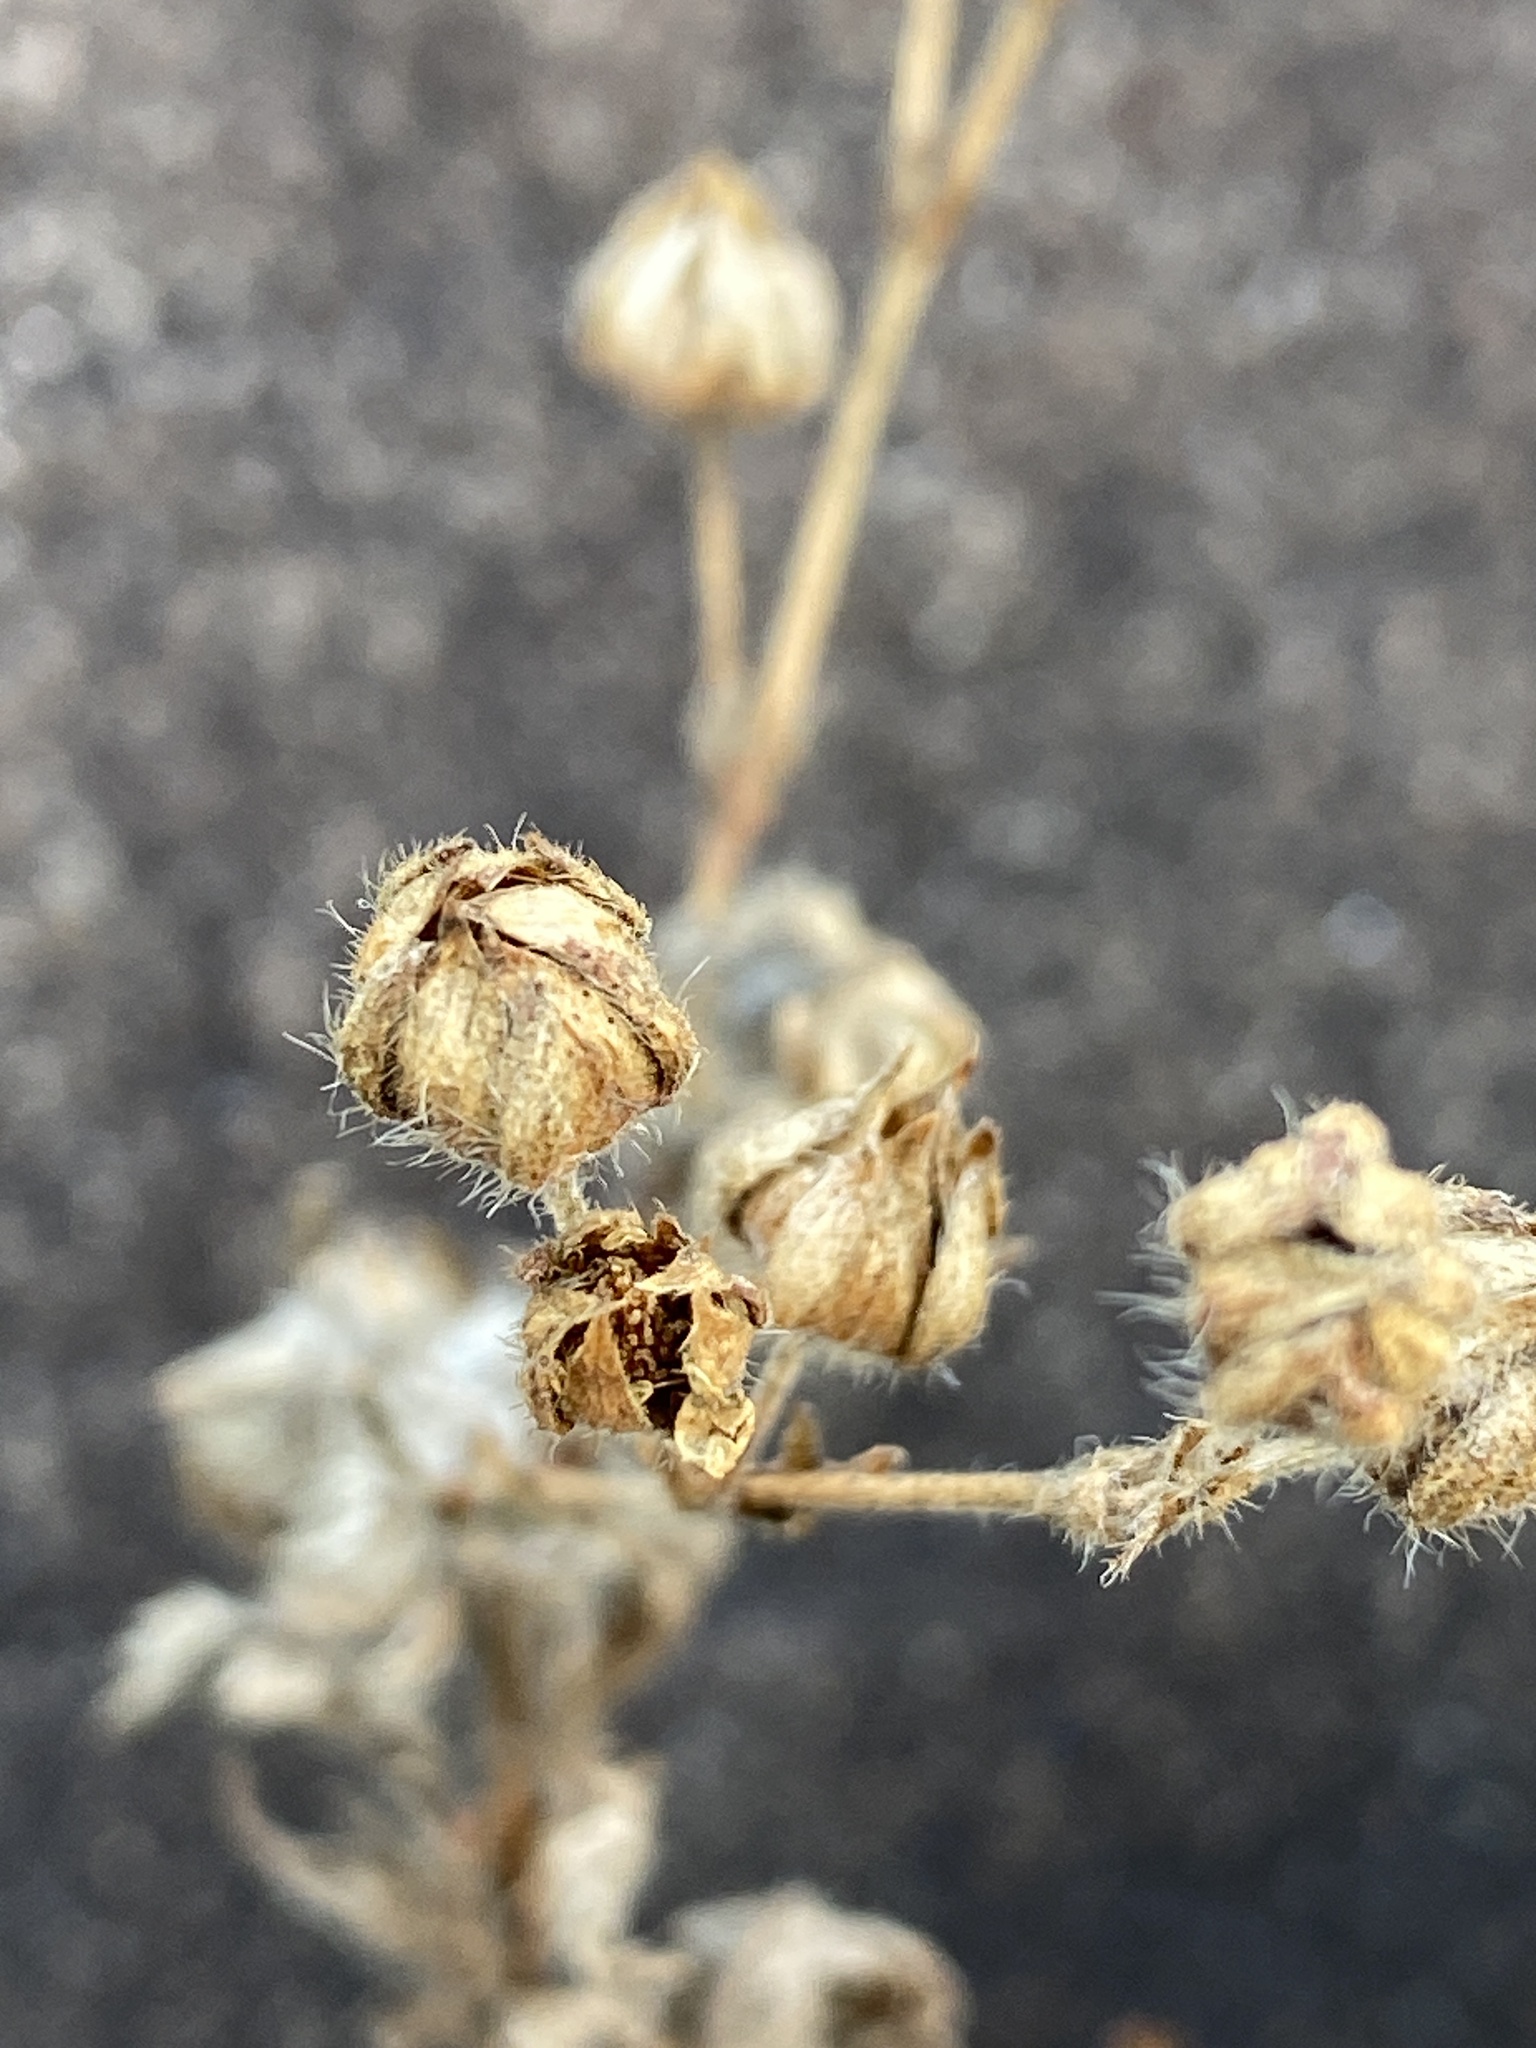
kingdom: Plantae
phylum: Tracheophyta
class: Magnoliopsida
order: Rosales
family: Rosaceae
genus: Potentilla
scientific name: Potentilla recta
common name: Sulphur cinquefoil
